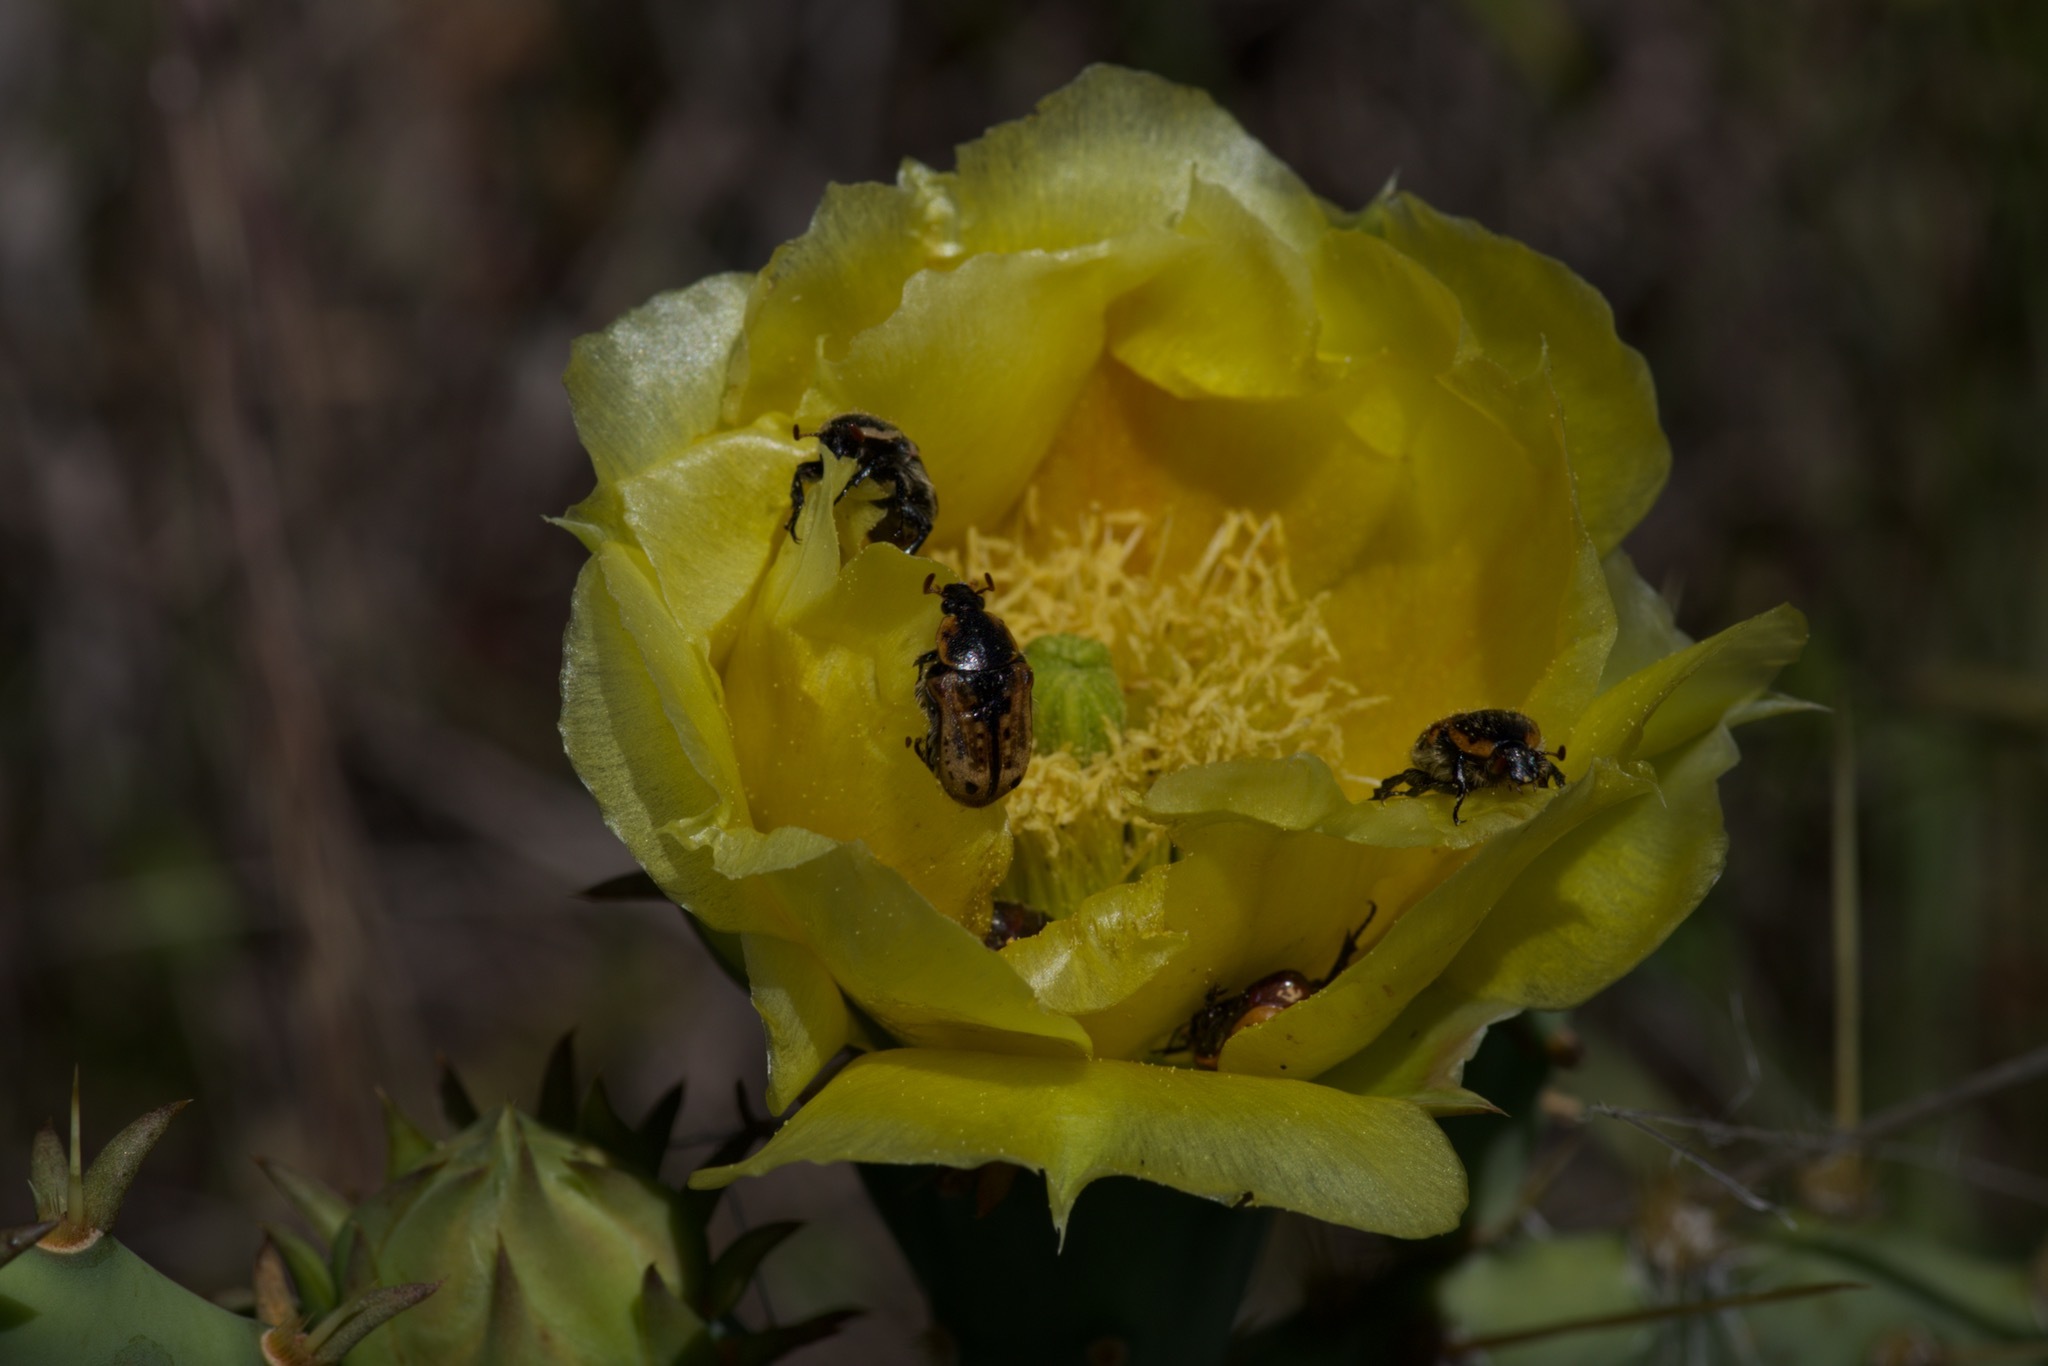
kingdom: Animalia
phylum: Arthropoda
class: Insecta
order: Coleoptera
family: Scarabaeidae
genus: Euphoria
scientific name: Euphoria kernii
